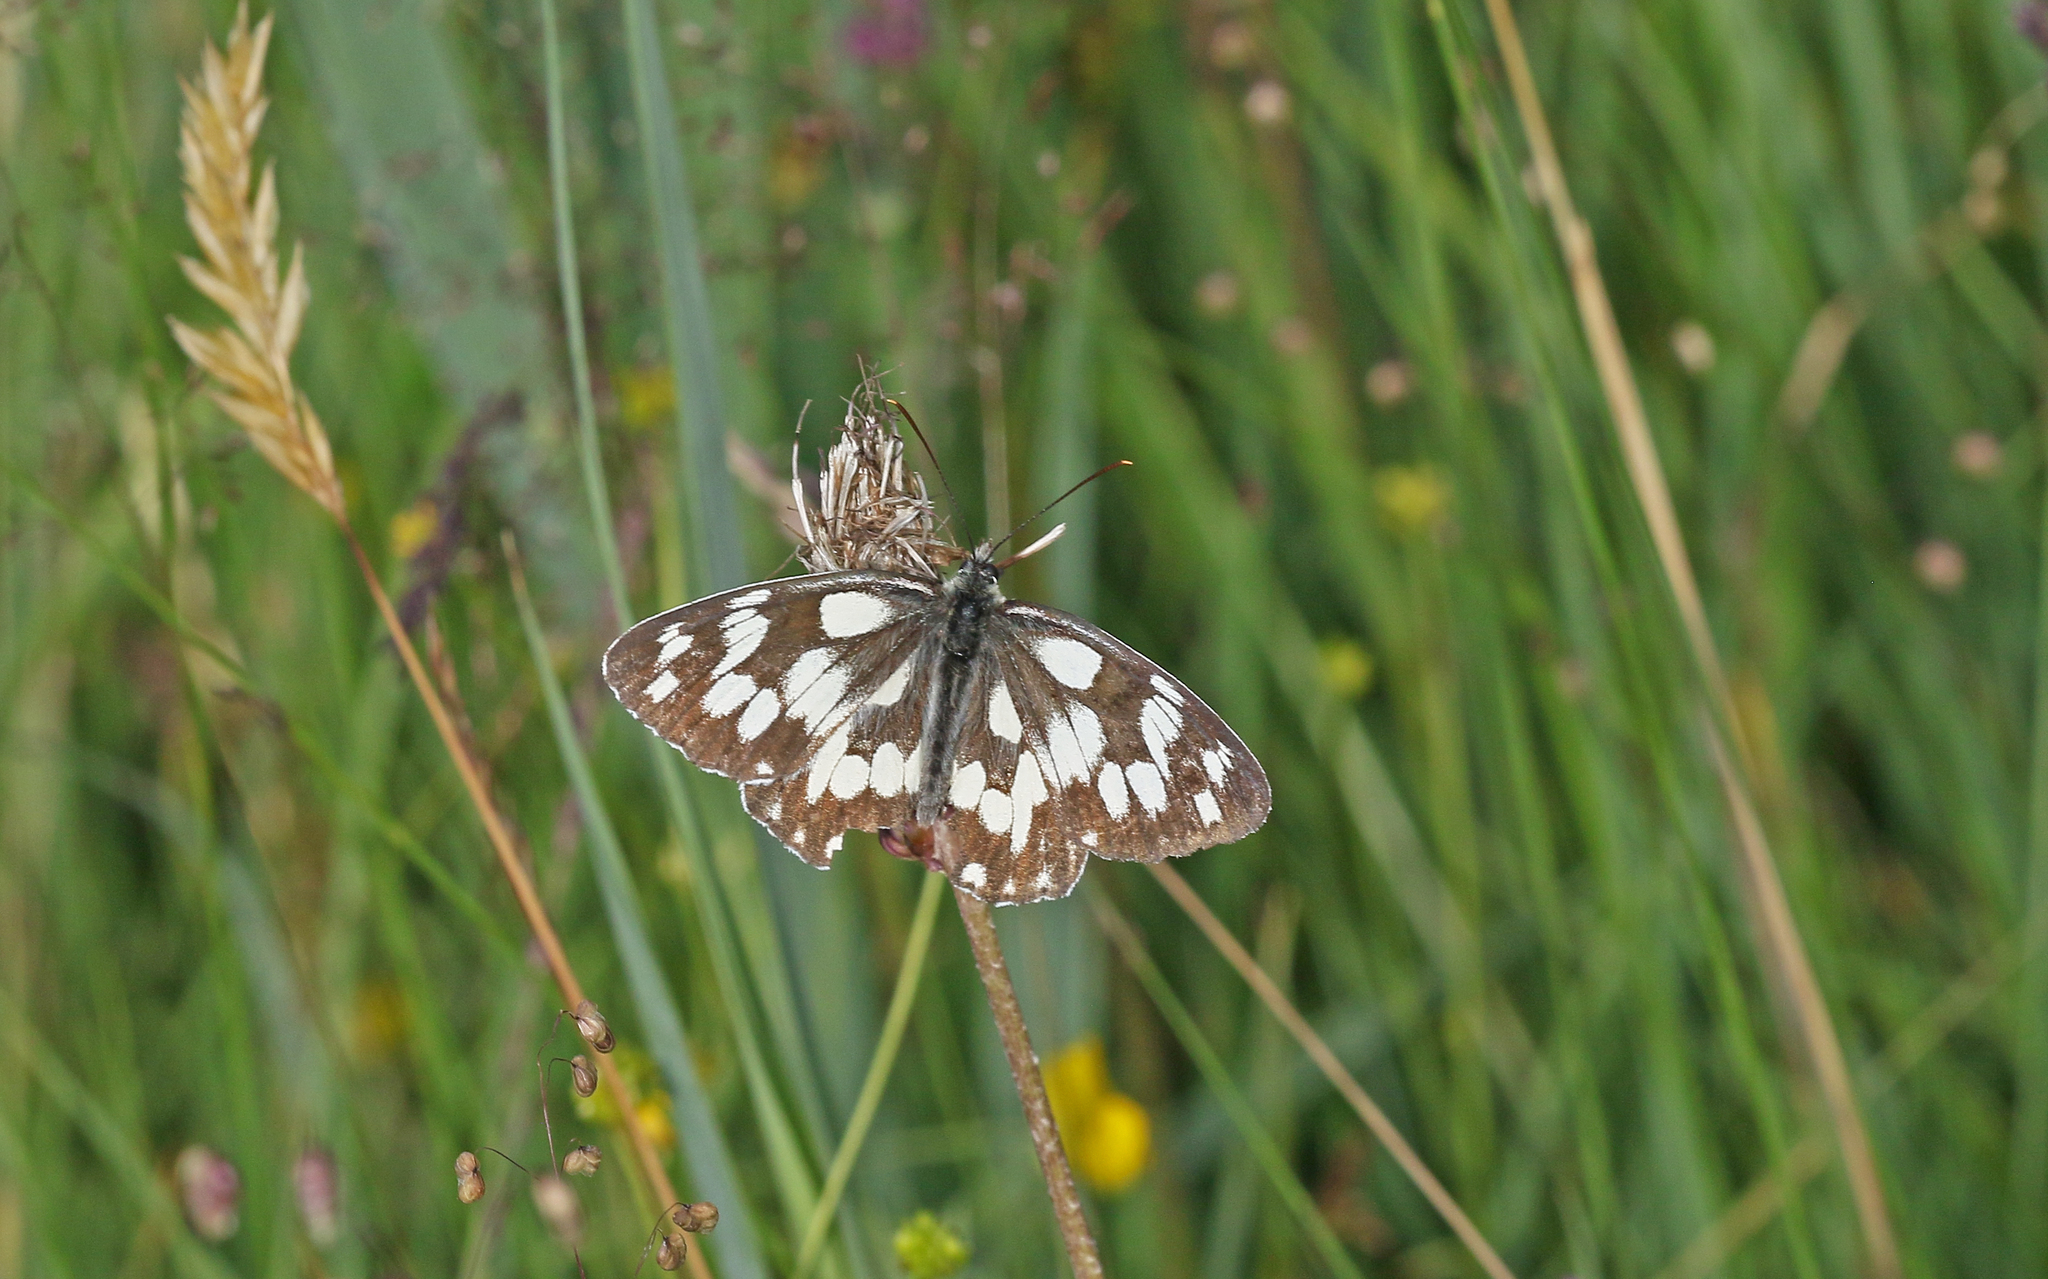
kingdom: Animalia
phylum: Arthropoda
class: Insecta
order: Lepidoptera
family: Nymphalidae
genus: Melanargia
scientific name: Melanargia galathea
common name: Marbled white
